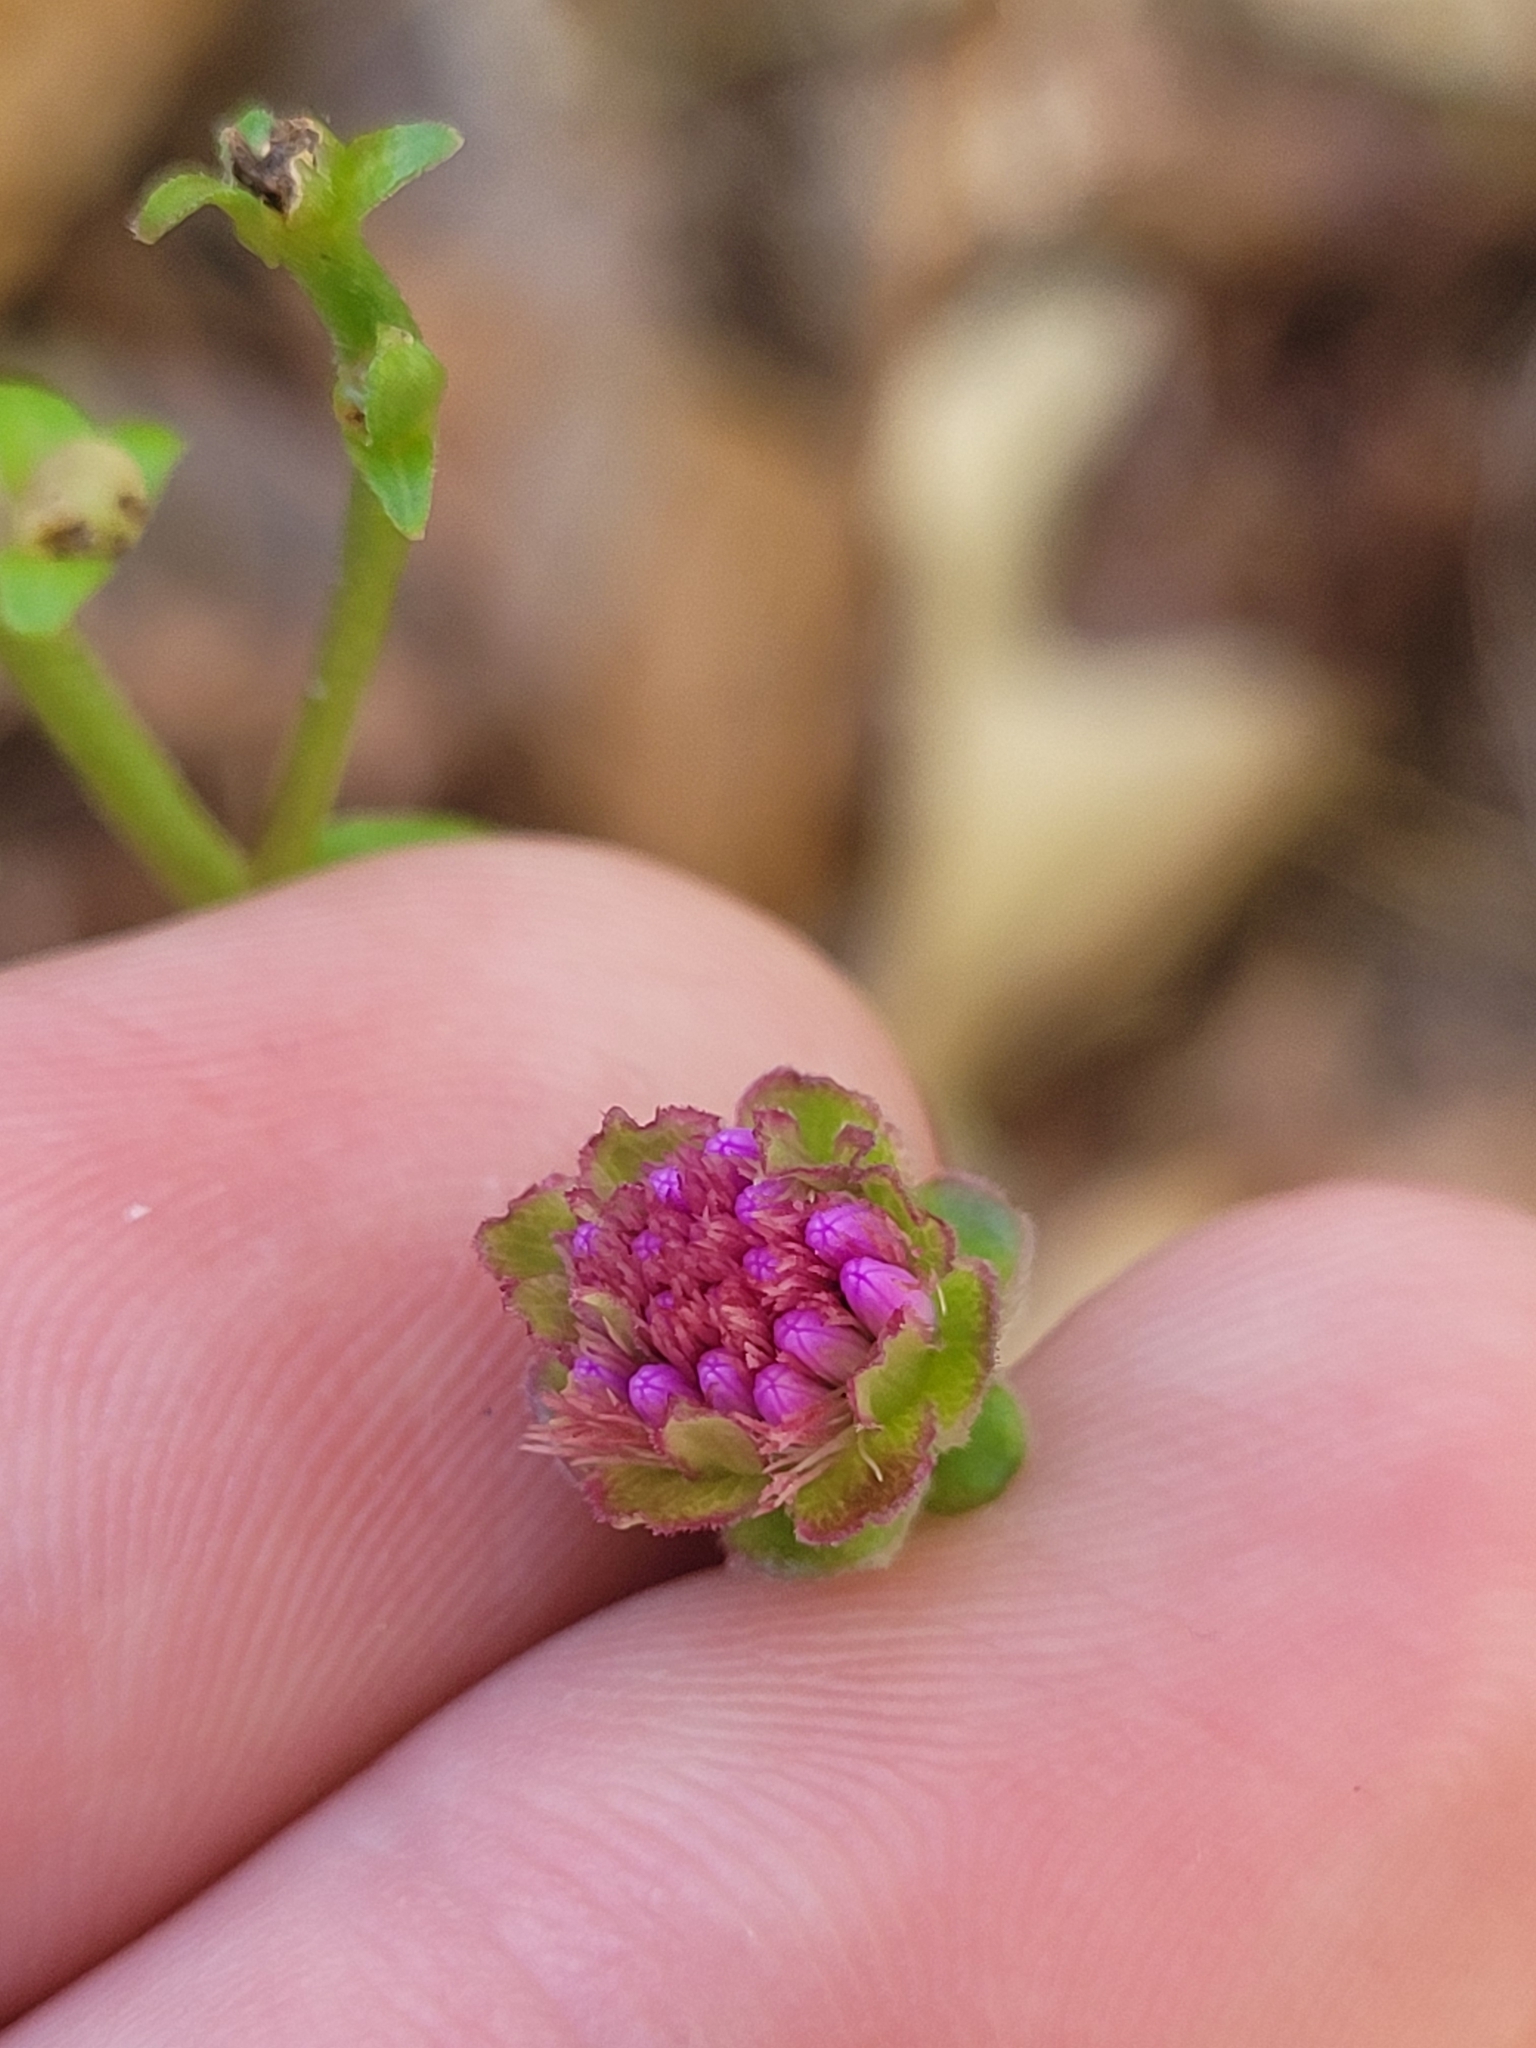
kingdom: Plantae
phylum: Tracheophyta
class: Magnoliopsida
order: Asterales
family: Asteraceae
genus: Carphephorus
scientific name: Carphephorus bellidifolius
